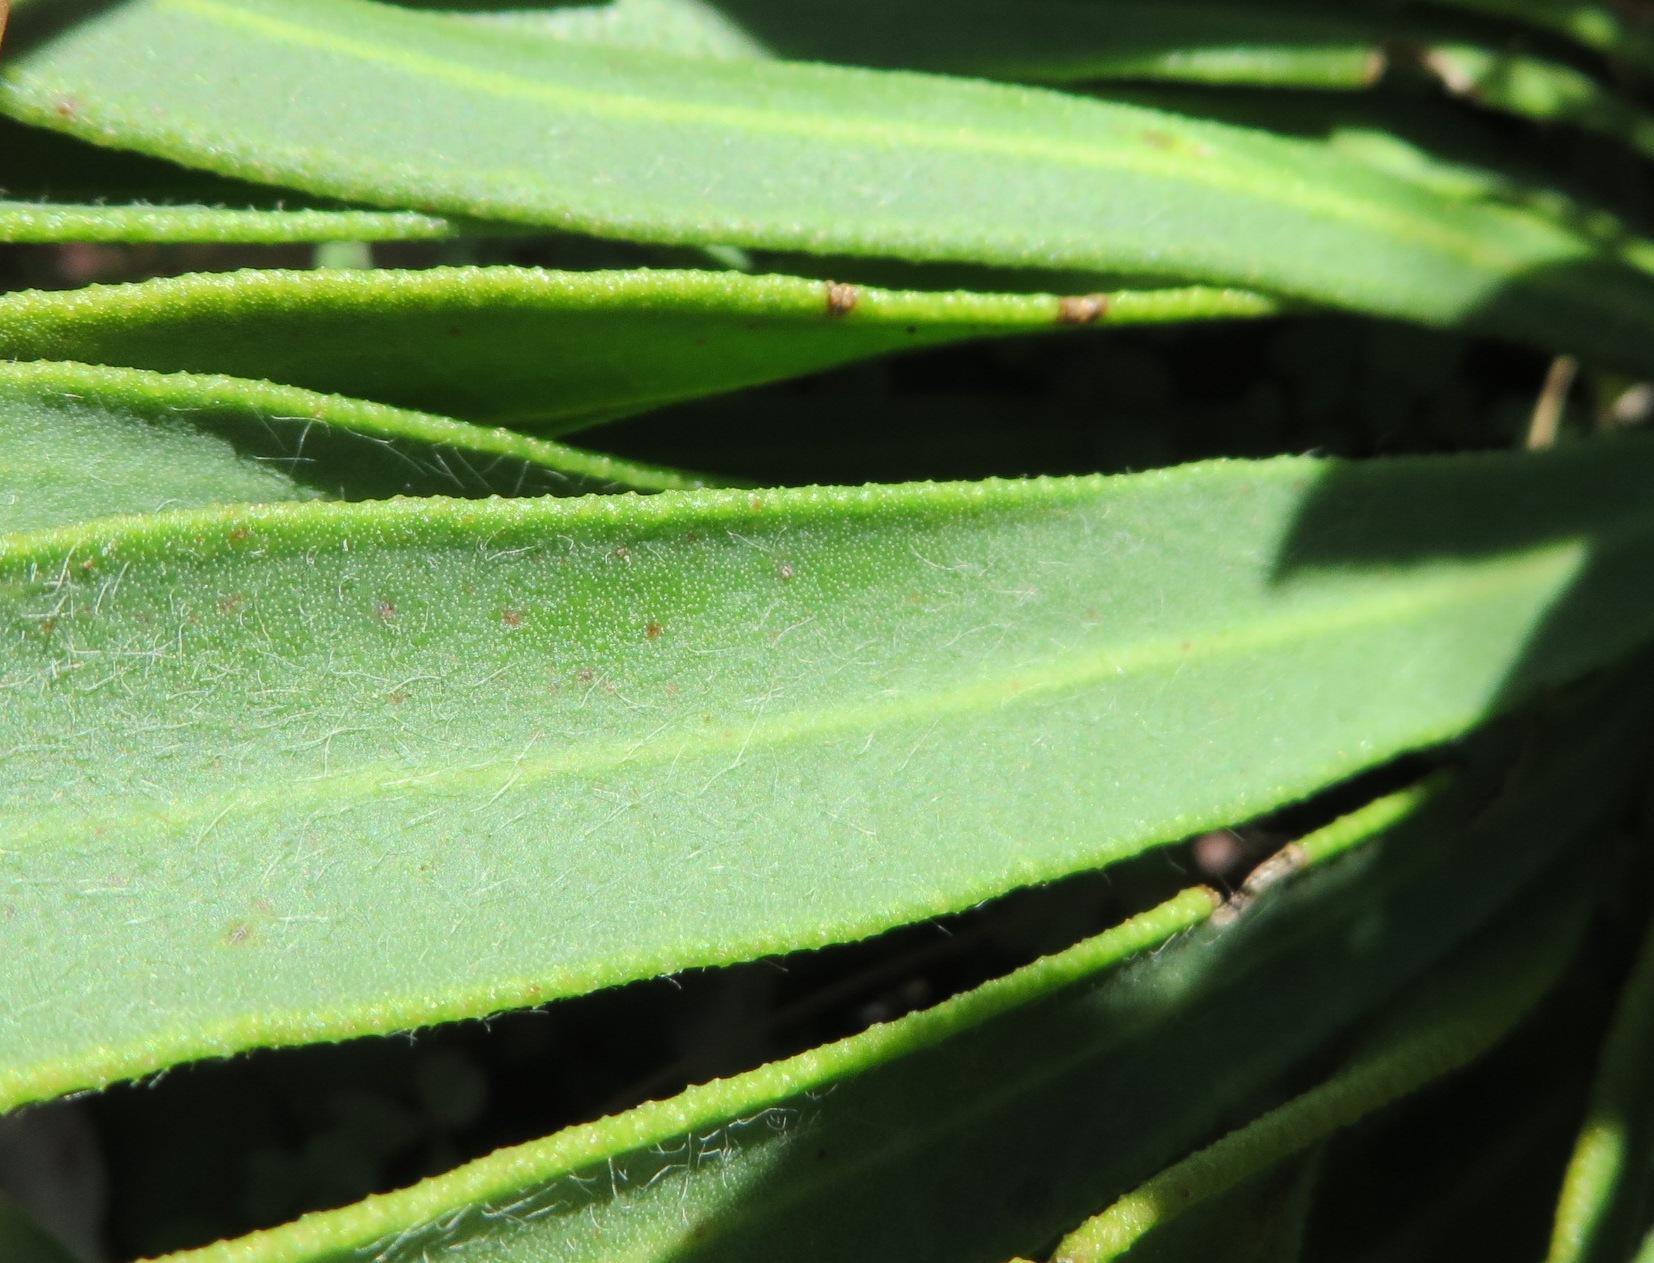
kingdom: Plantae
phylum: Tracheophyta
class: Magnoliopsida
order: Proteales
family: Proteaceae
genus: Protea
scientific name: Protea scabra
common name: Sandpaper-leaf sugarbush
